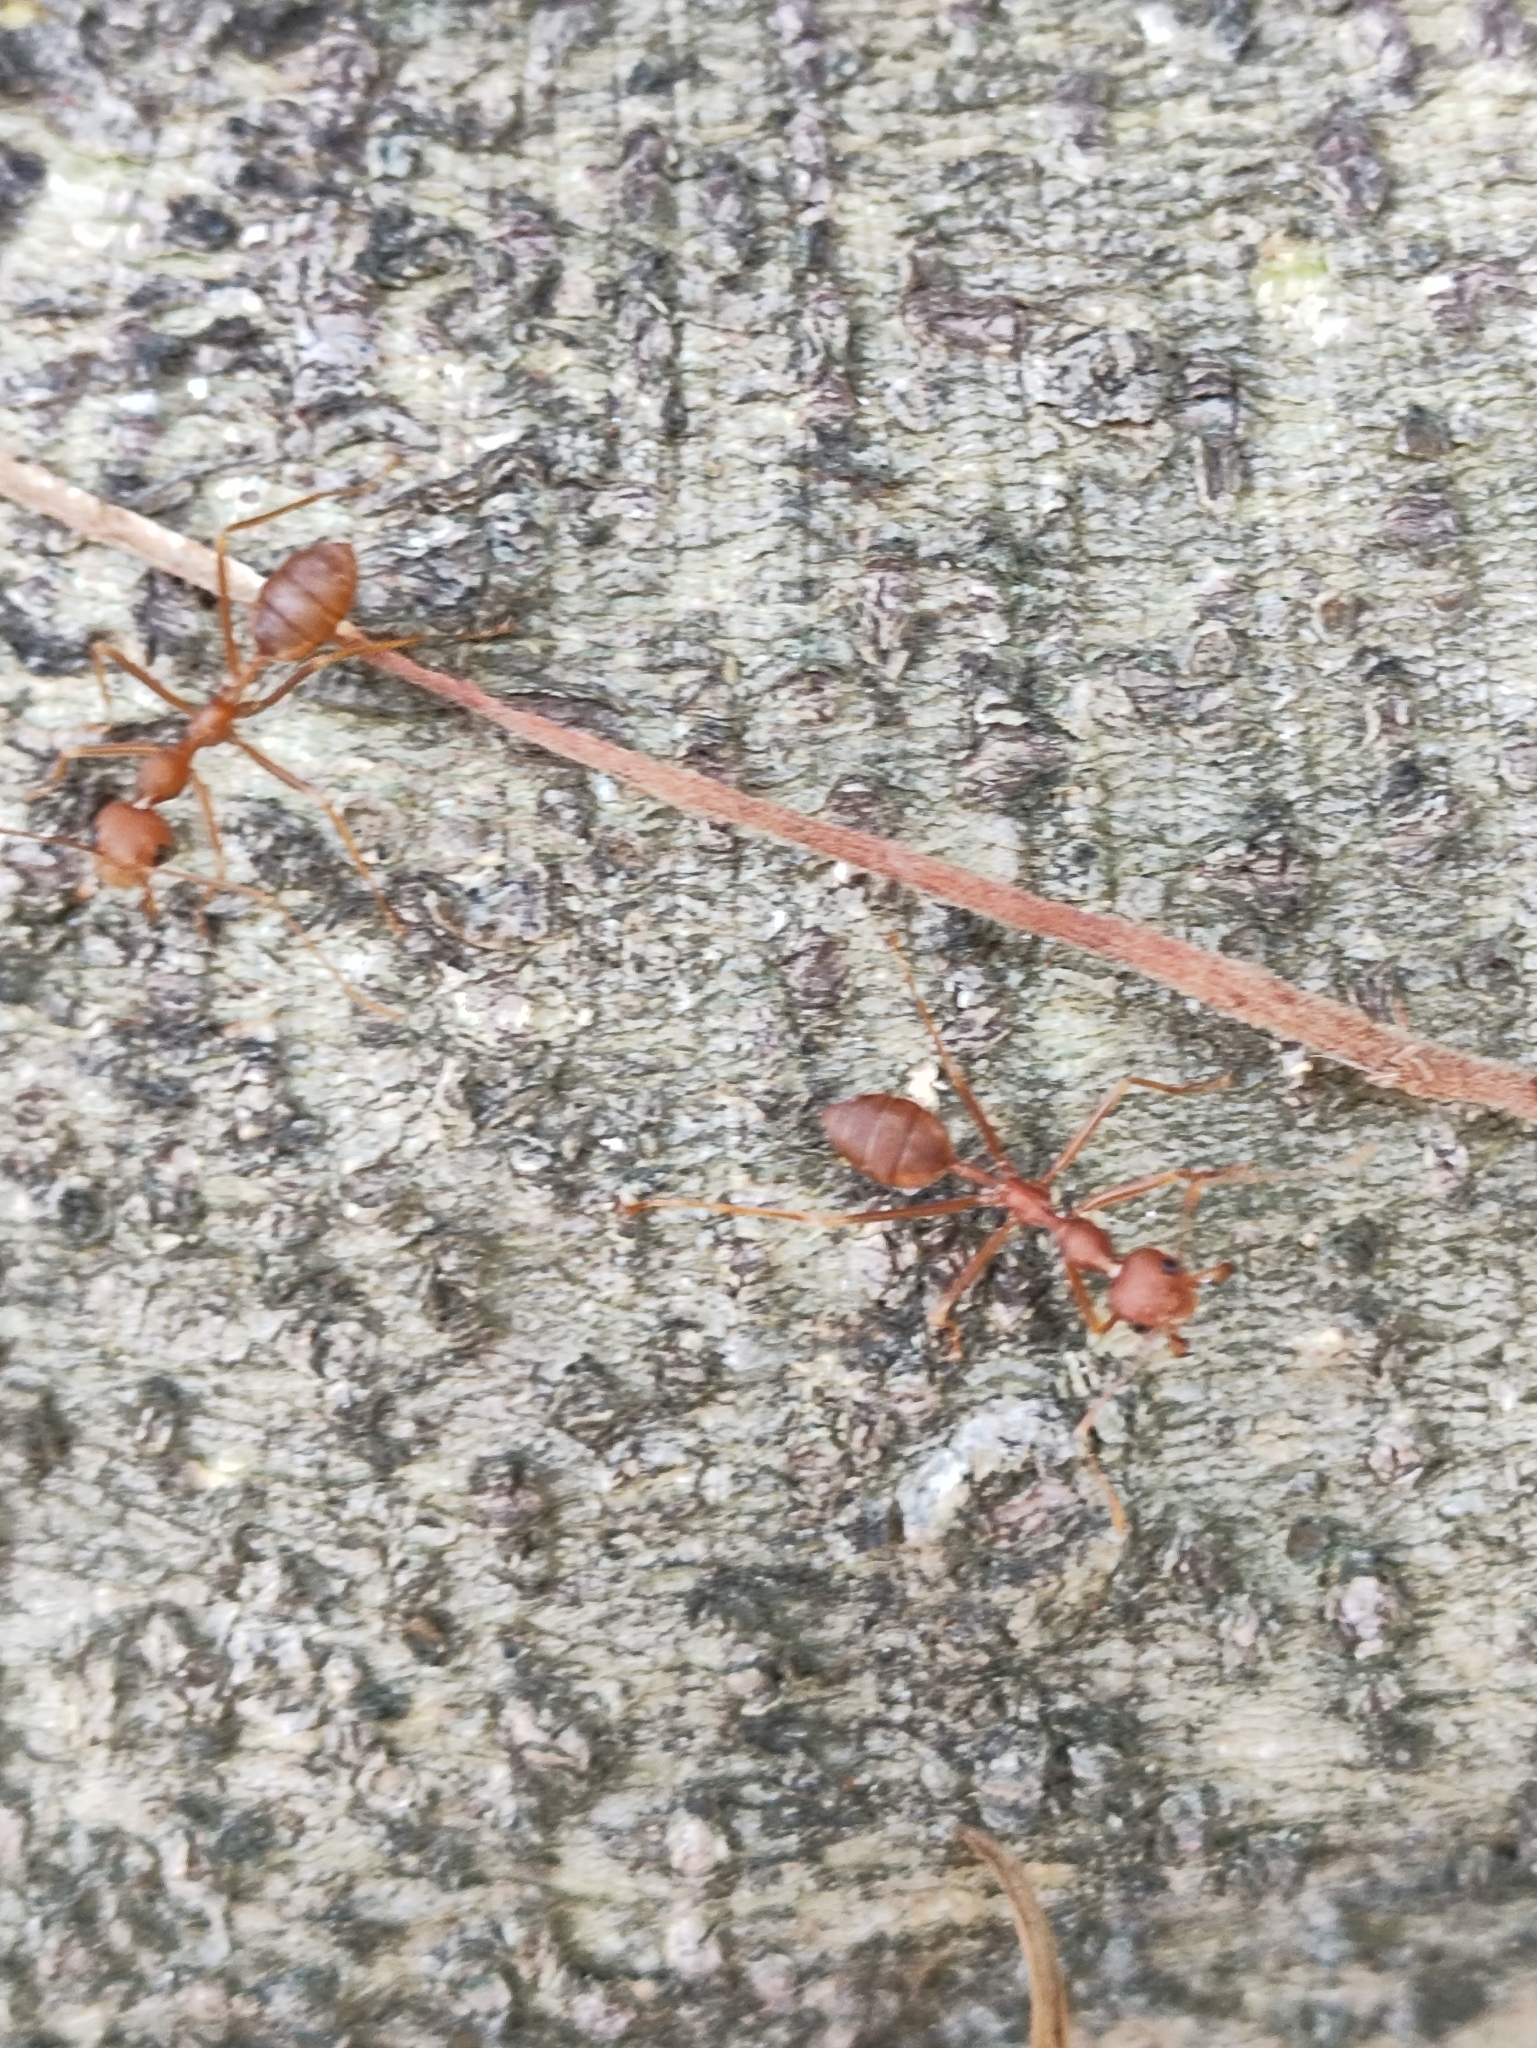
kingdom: Animalia
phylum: Arthropoda
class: Insecta
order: Hymenoptera
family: Formicidae
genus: Oecophylla
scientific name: Oecophylla smaragdina
